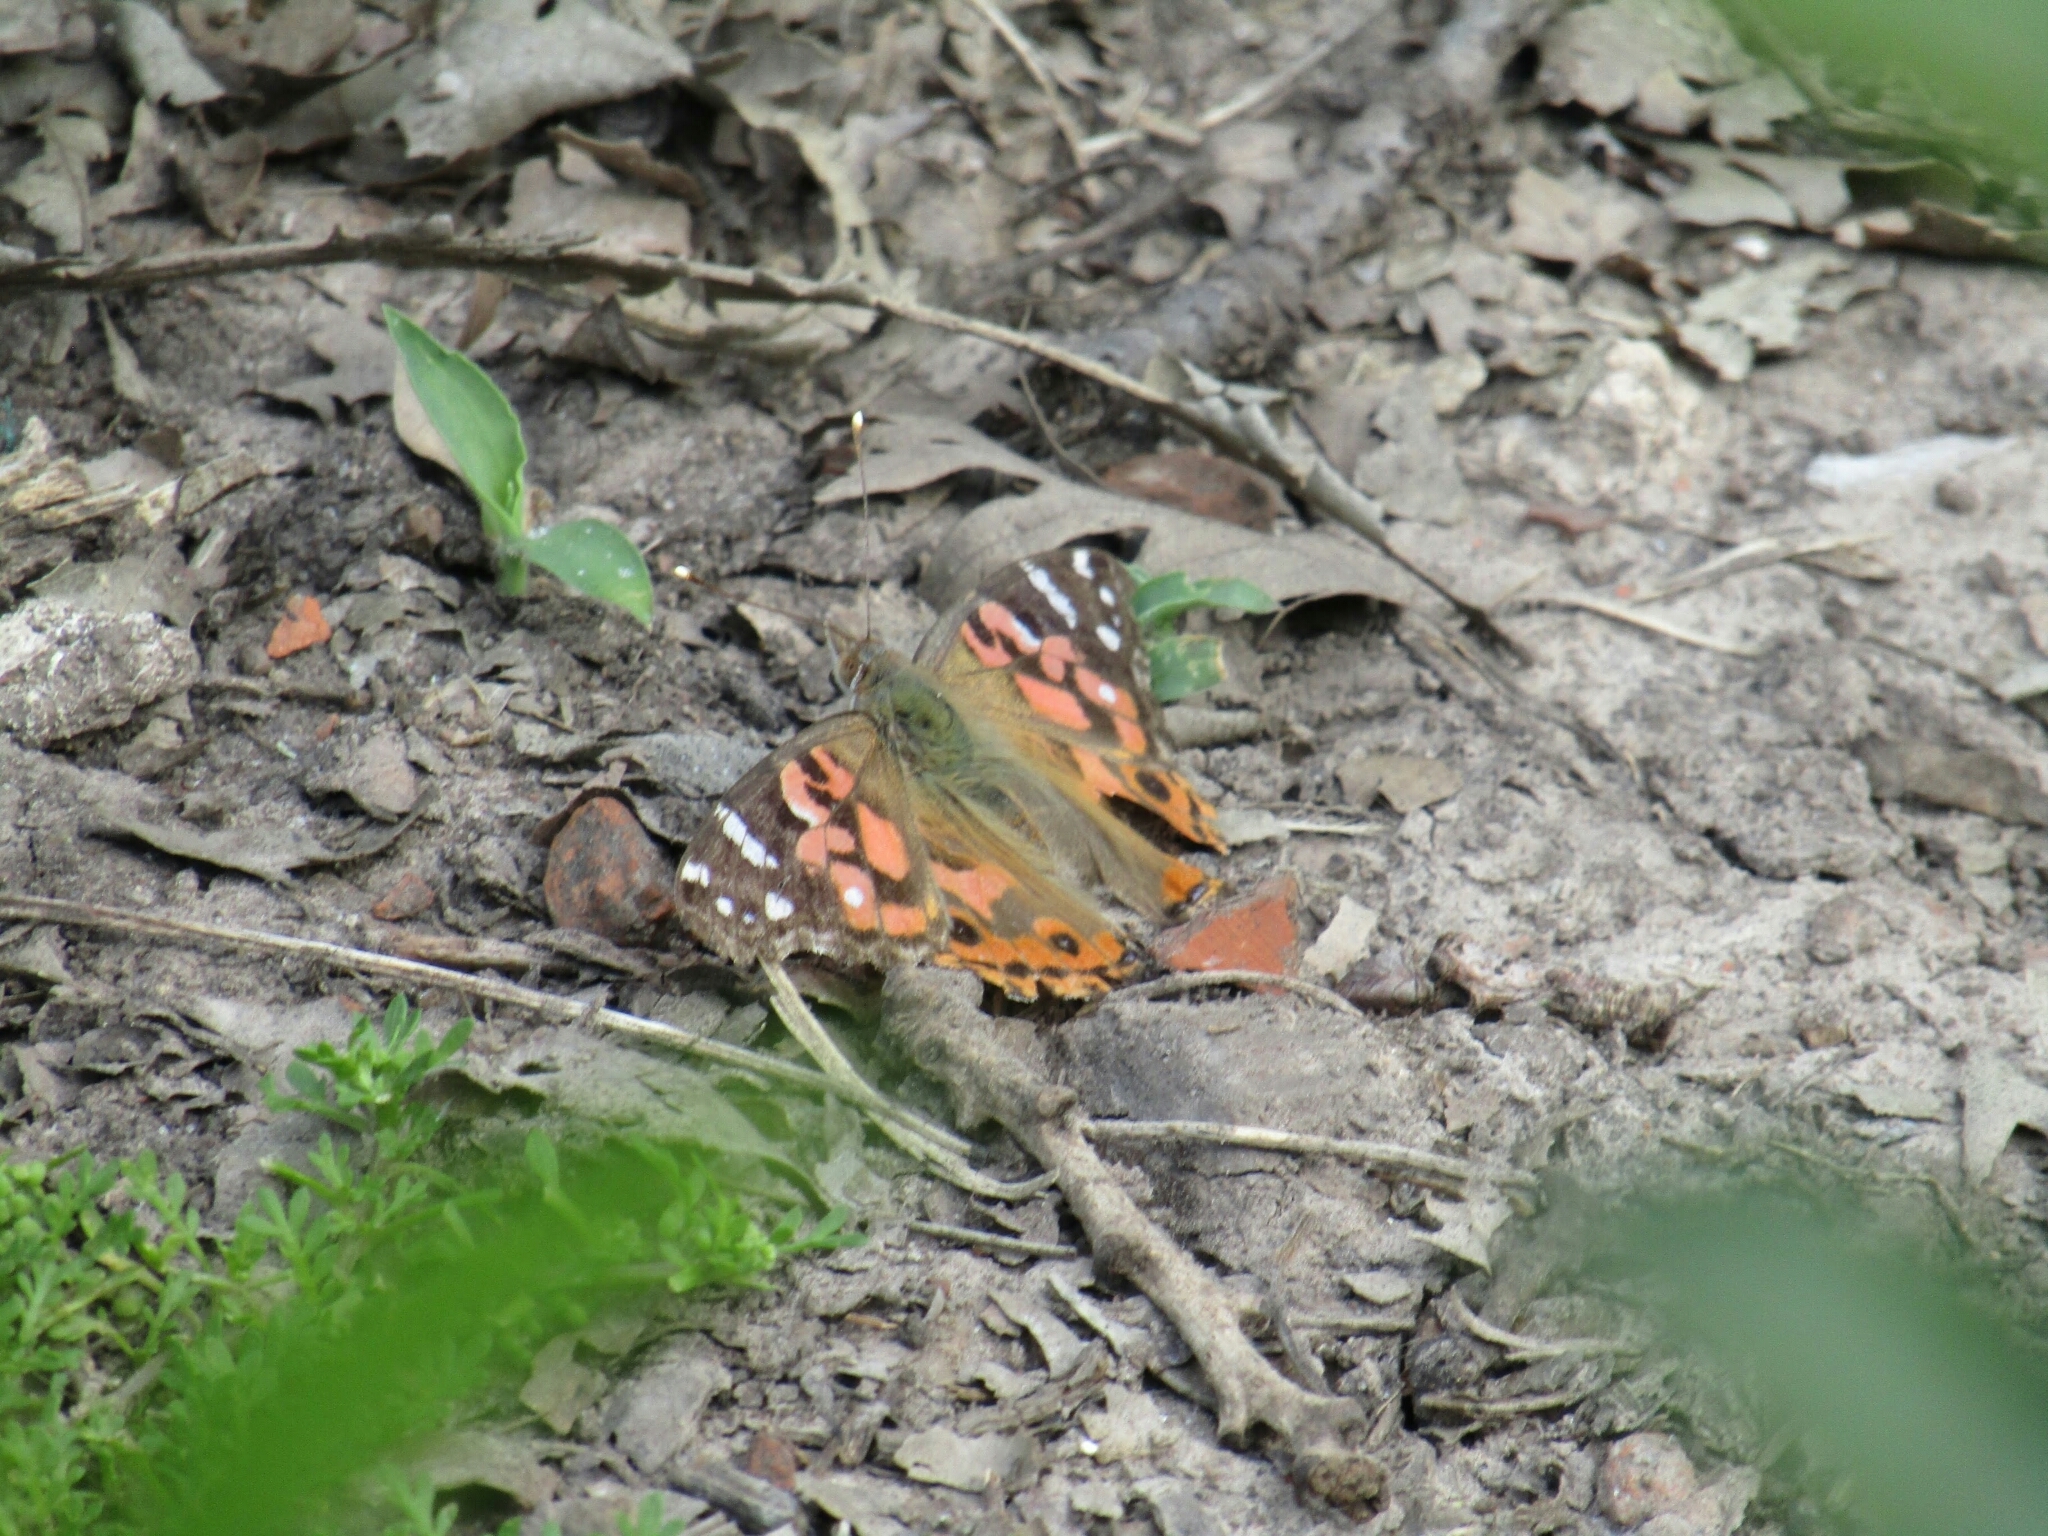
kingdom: Animalia
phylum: Arthropoda
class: Insecta
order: Lepidoptera
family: Nymphalidae
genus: Vanessa
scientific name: Vanessa braziliensis
